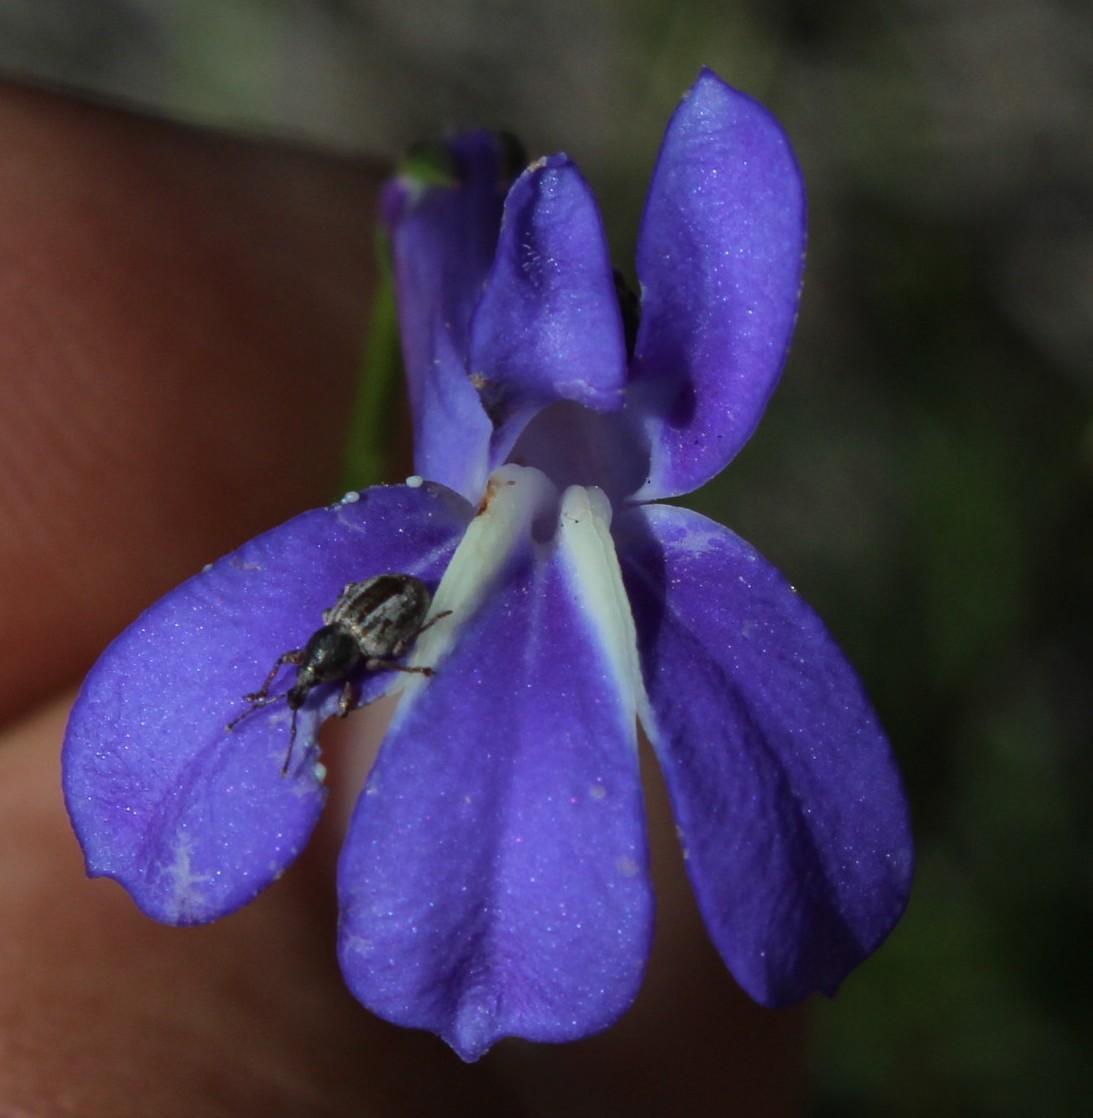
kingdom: Plantae
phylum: Tracheophyta
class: Magnoliopsida
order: Asterales
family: Campanulaceae
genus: Lobelia
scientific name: Lobelia coronopifolia
